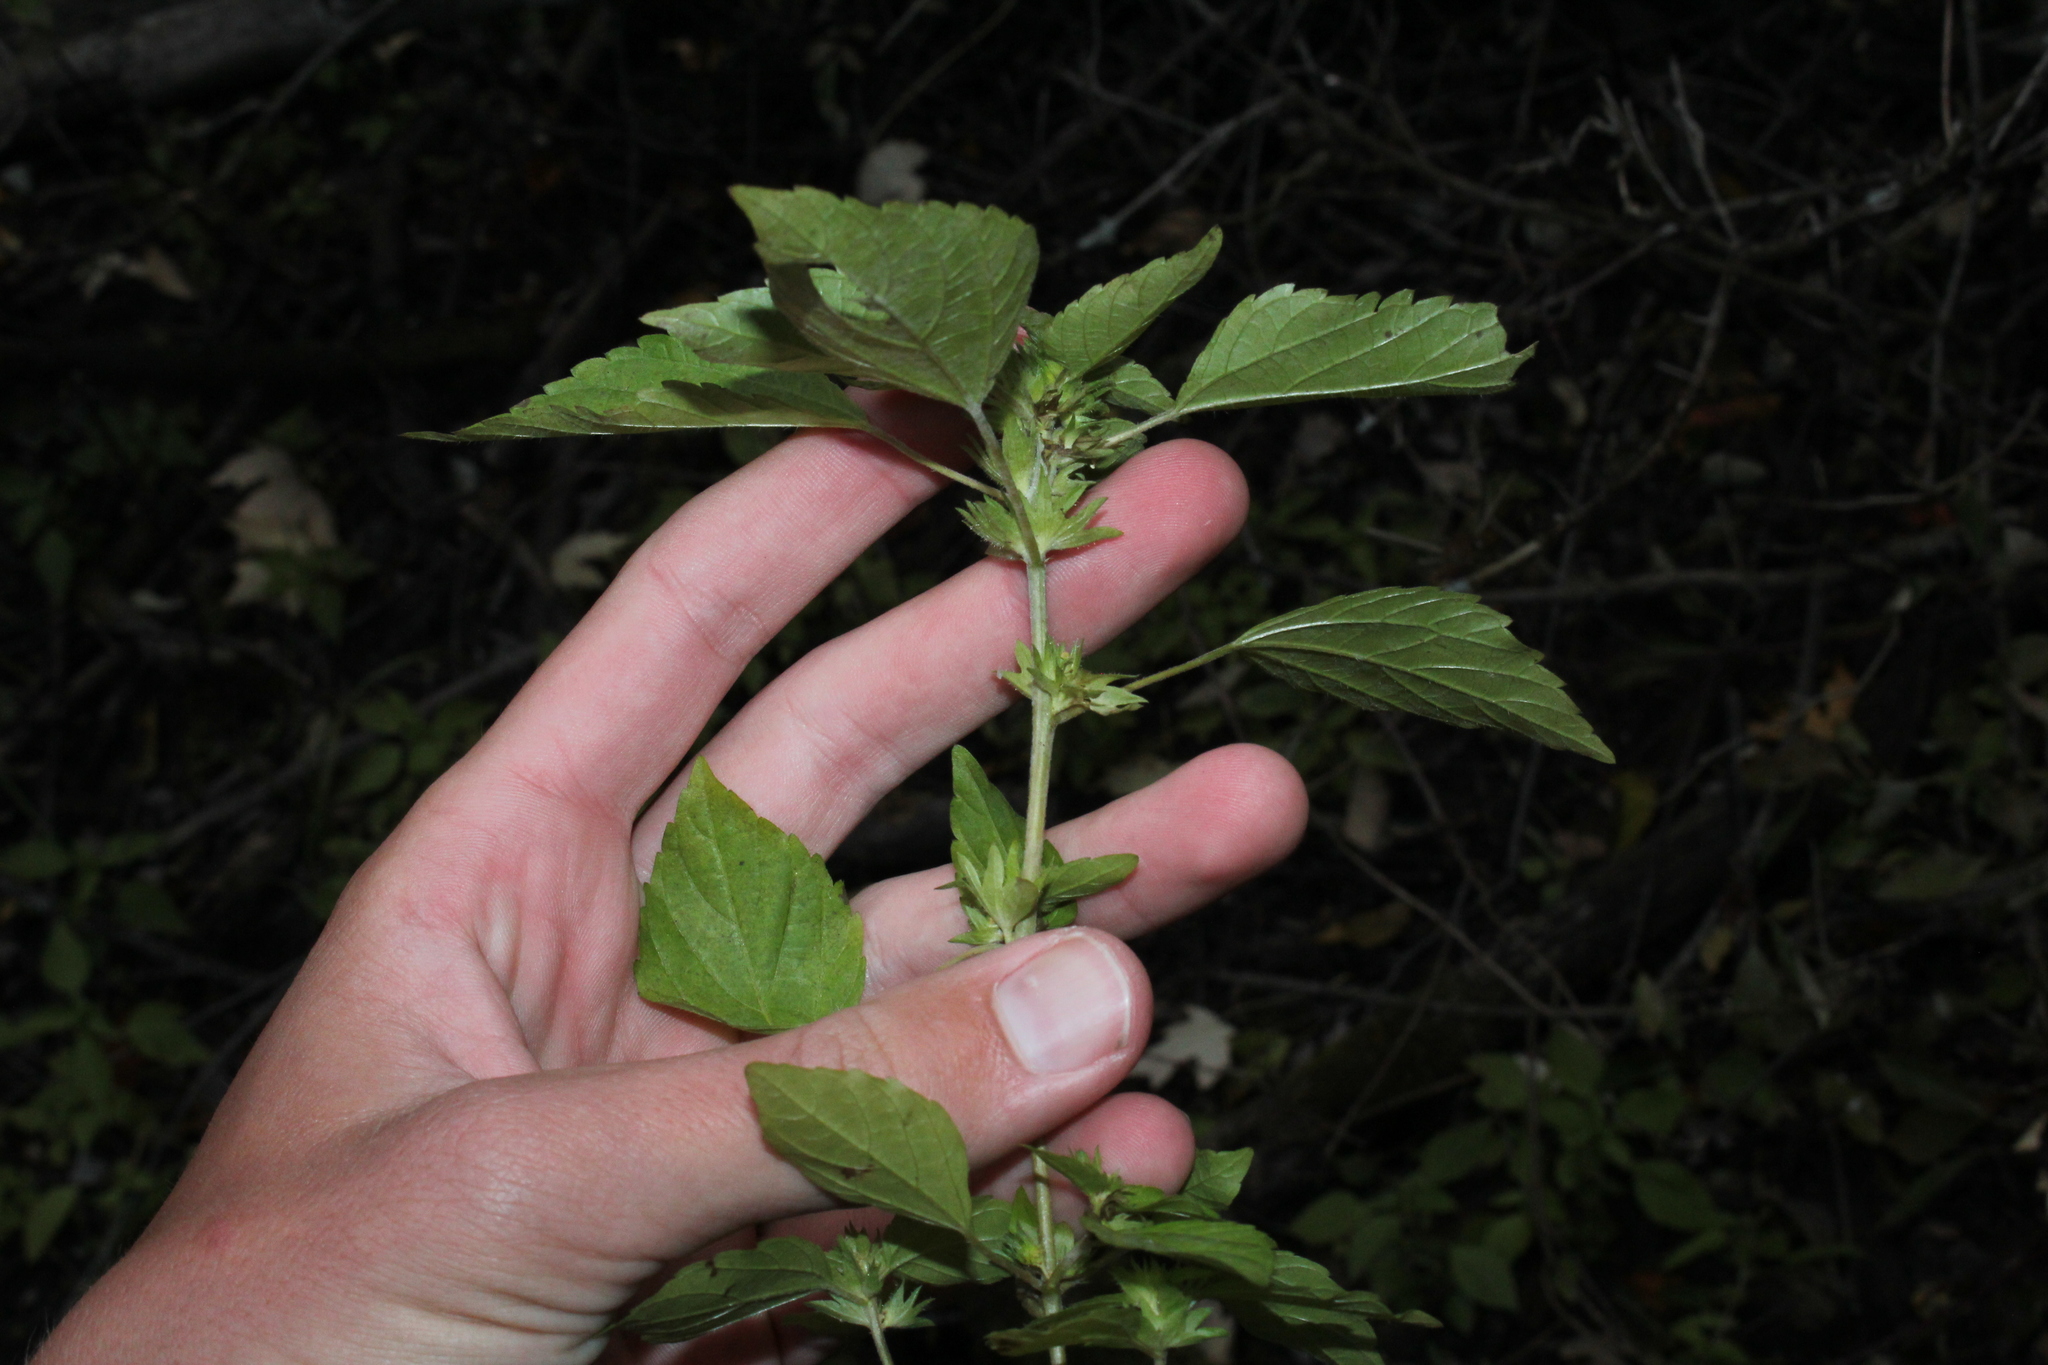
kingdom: Plantae
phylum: Tracheophyta
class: Magnoliopsida
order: Malpighiales
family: Euphorbiaceae
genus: Acalypha
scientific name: Acalypha rhomboidea
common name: Rhombic copperleaf
